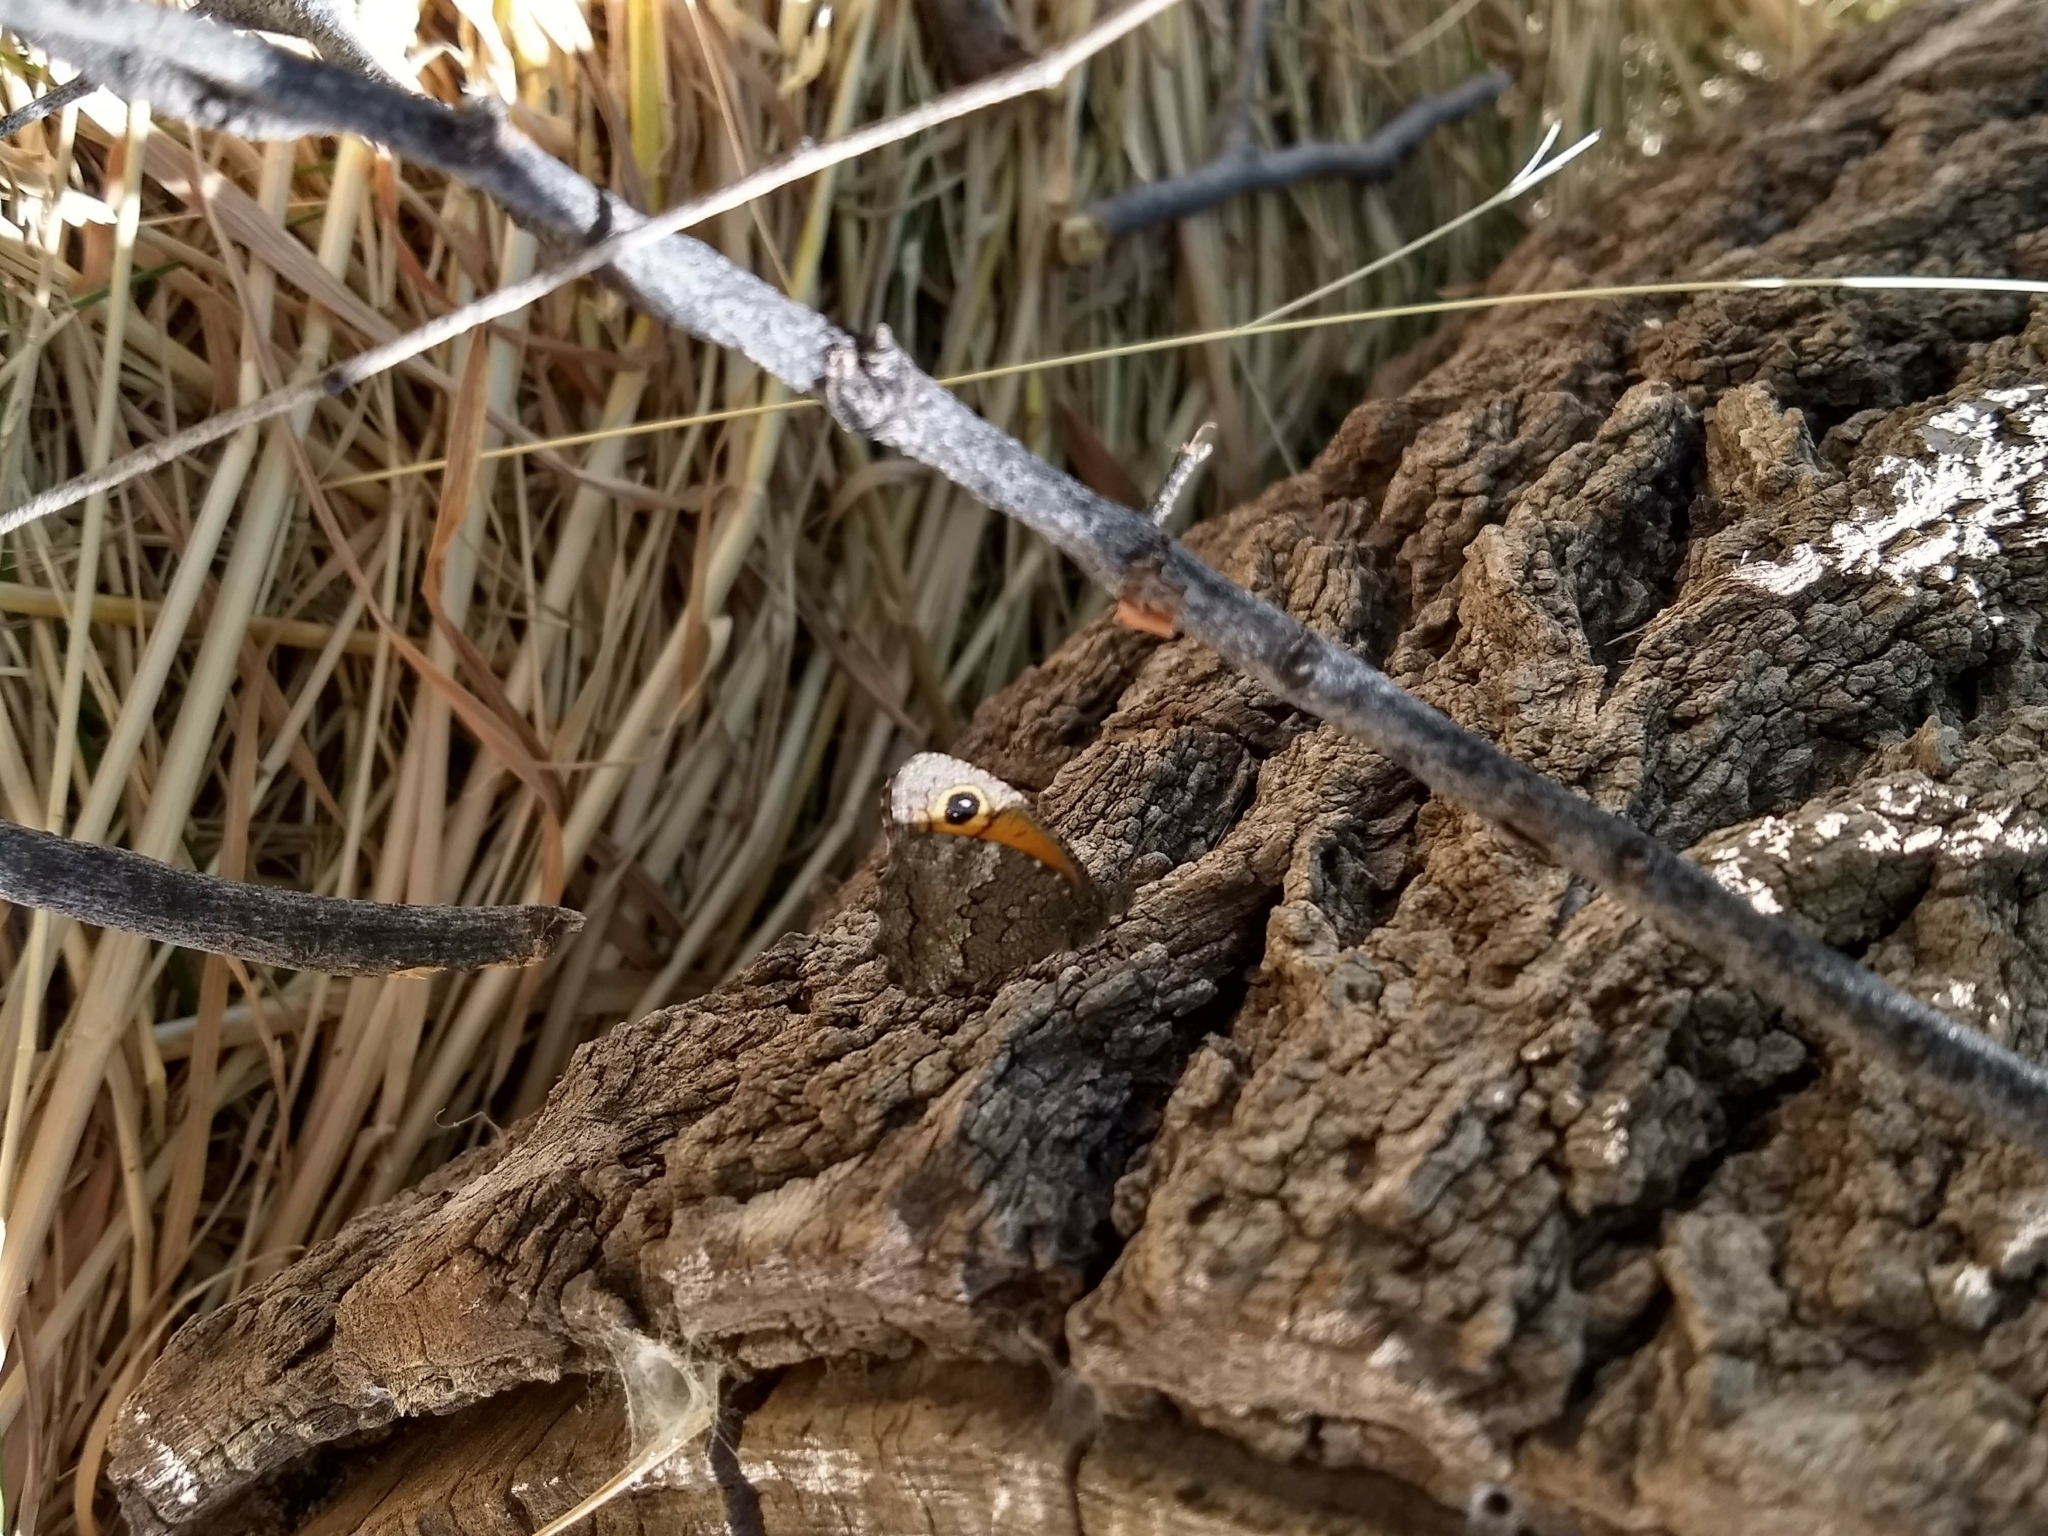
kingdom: Animalia
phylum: Arthropoda
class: Insecta
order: Lepidoptera
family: Nymphalidae
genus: Haywardella
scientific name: Haywardella edmondsii
